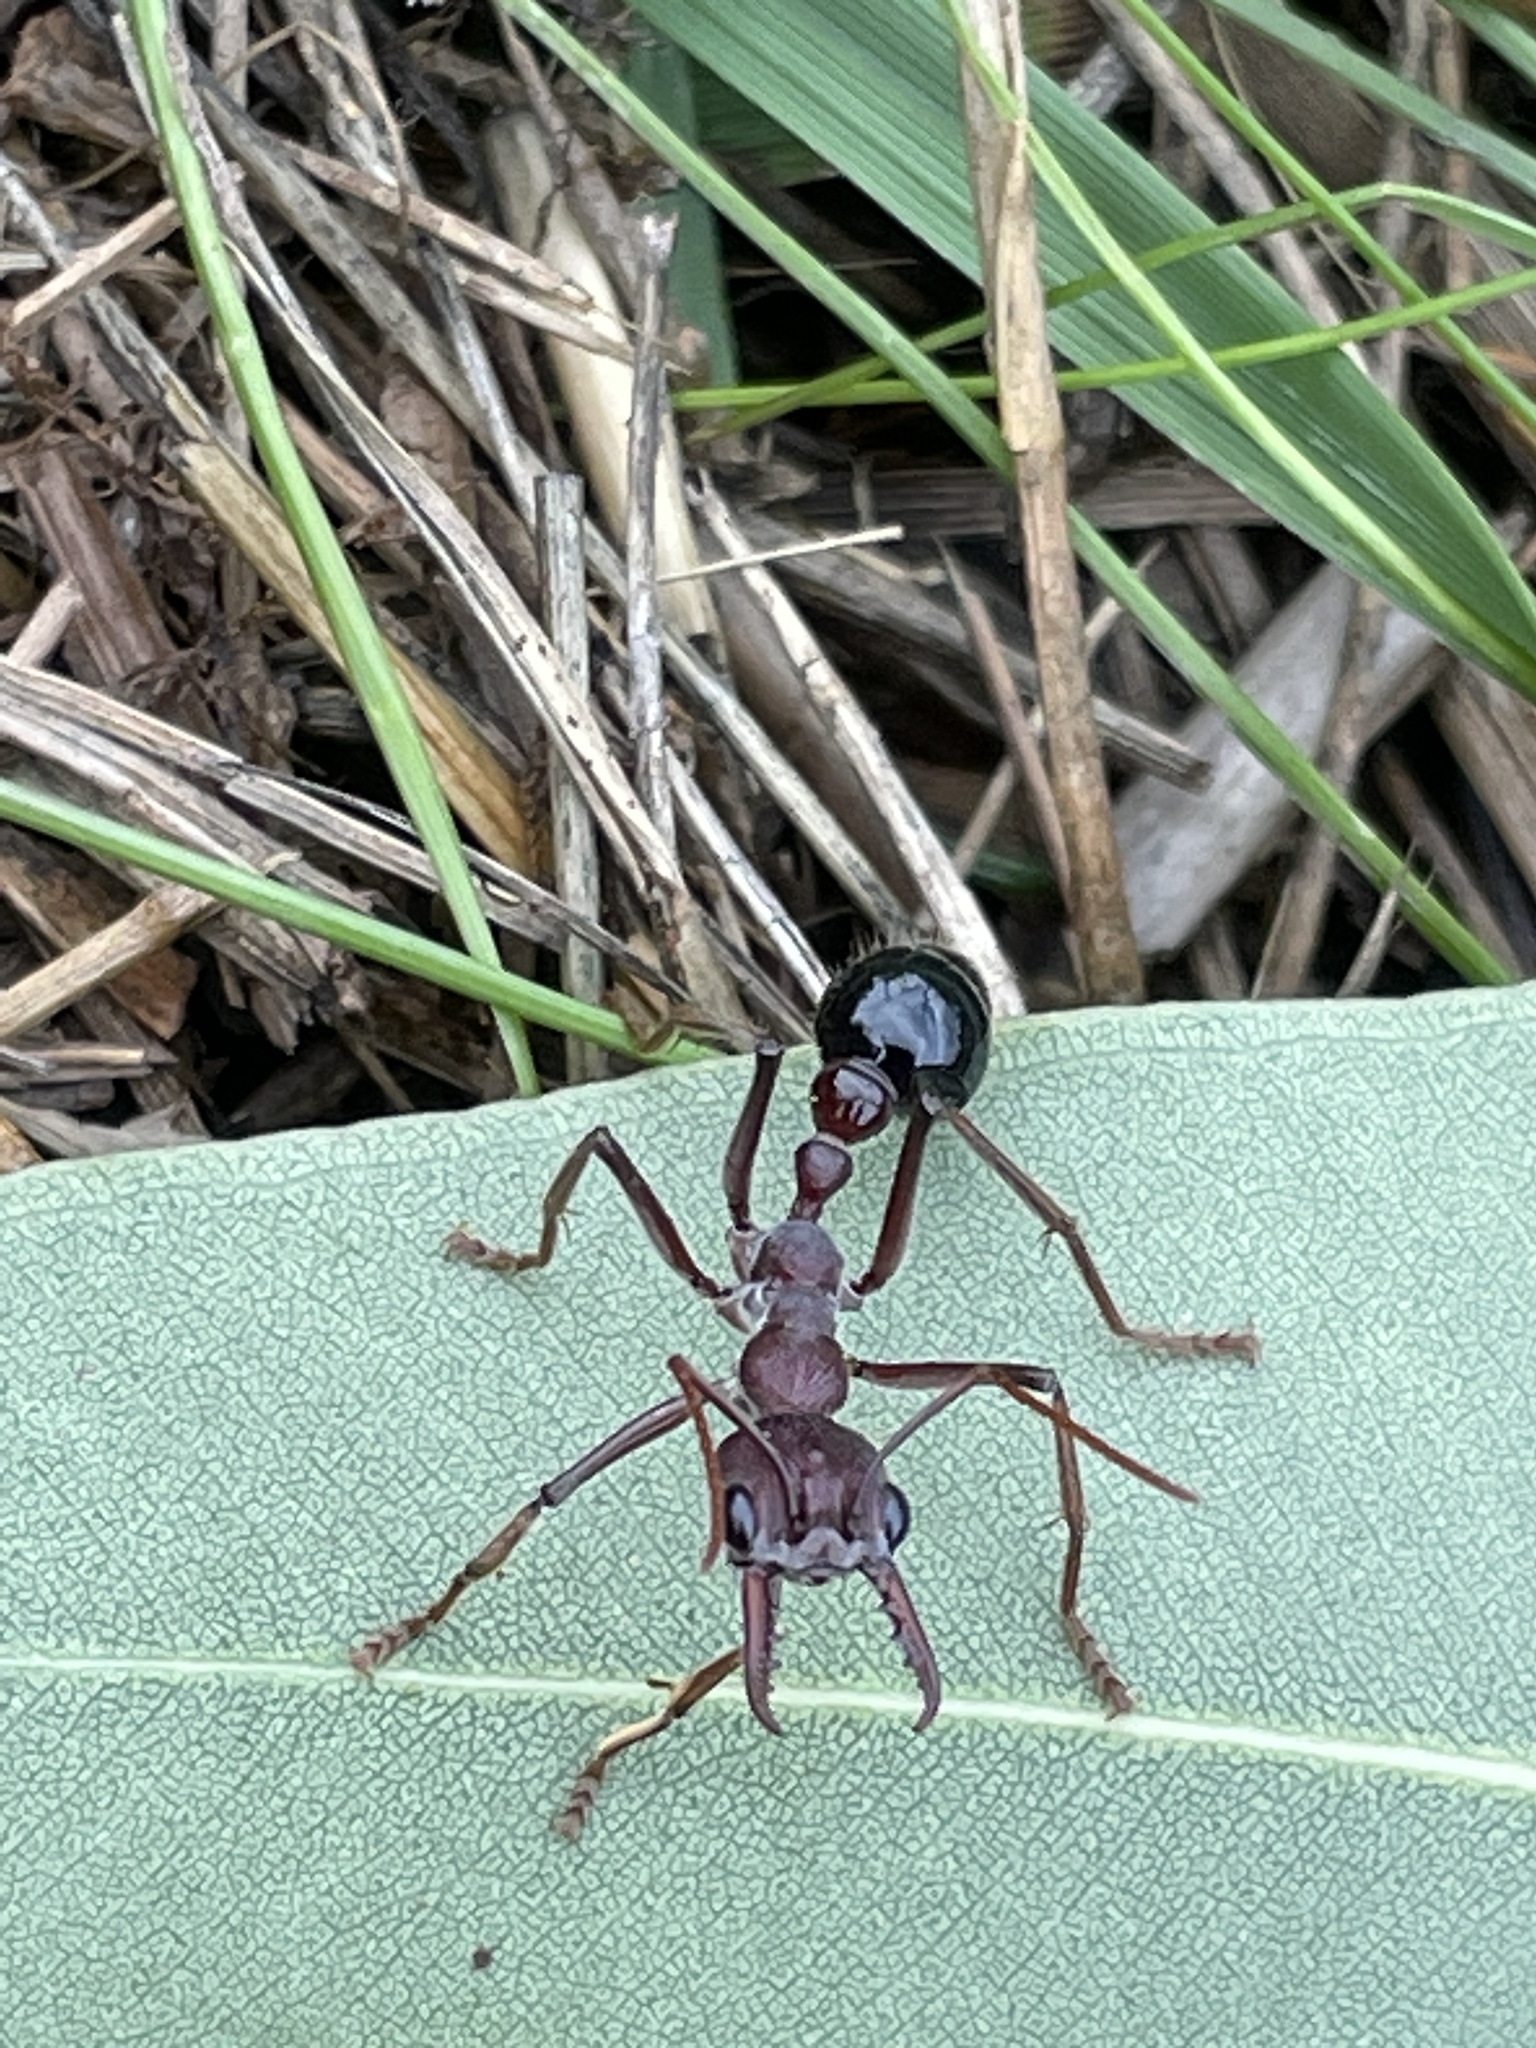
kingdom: Animalia
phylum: Arthropoda
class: Insecta
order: Hymenoptera
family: Formicidae
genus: Myrmecia
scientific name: Myrmecia simillima
